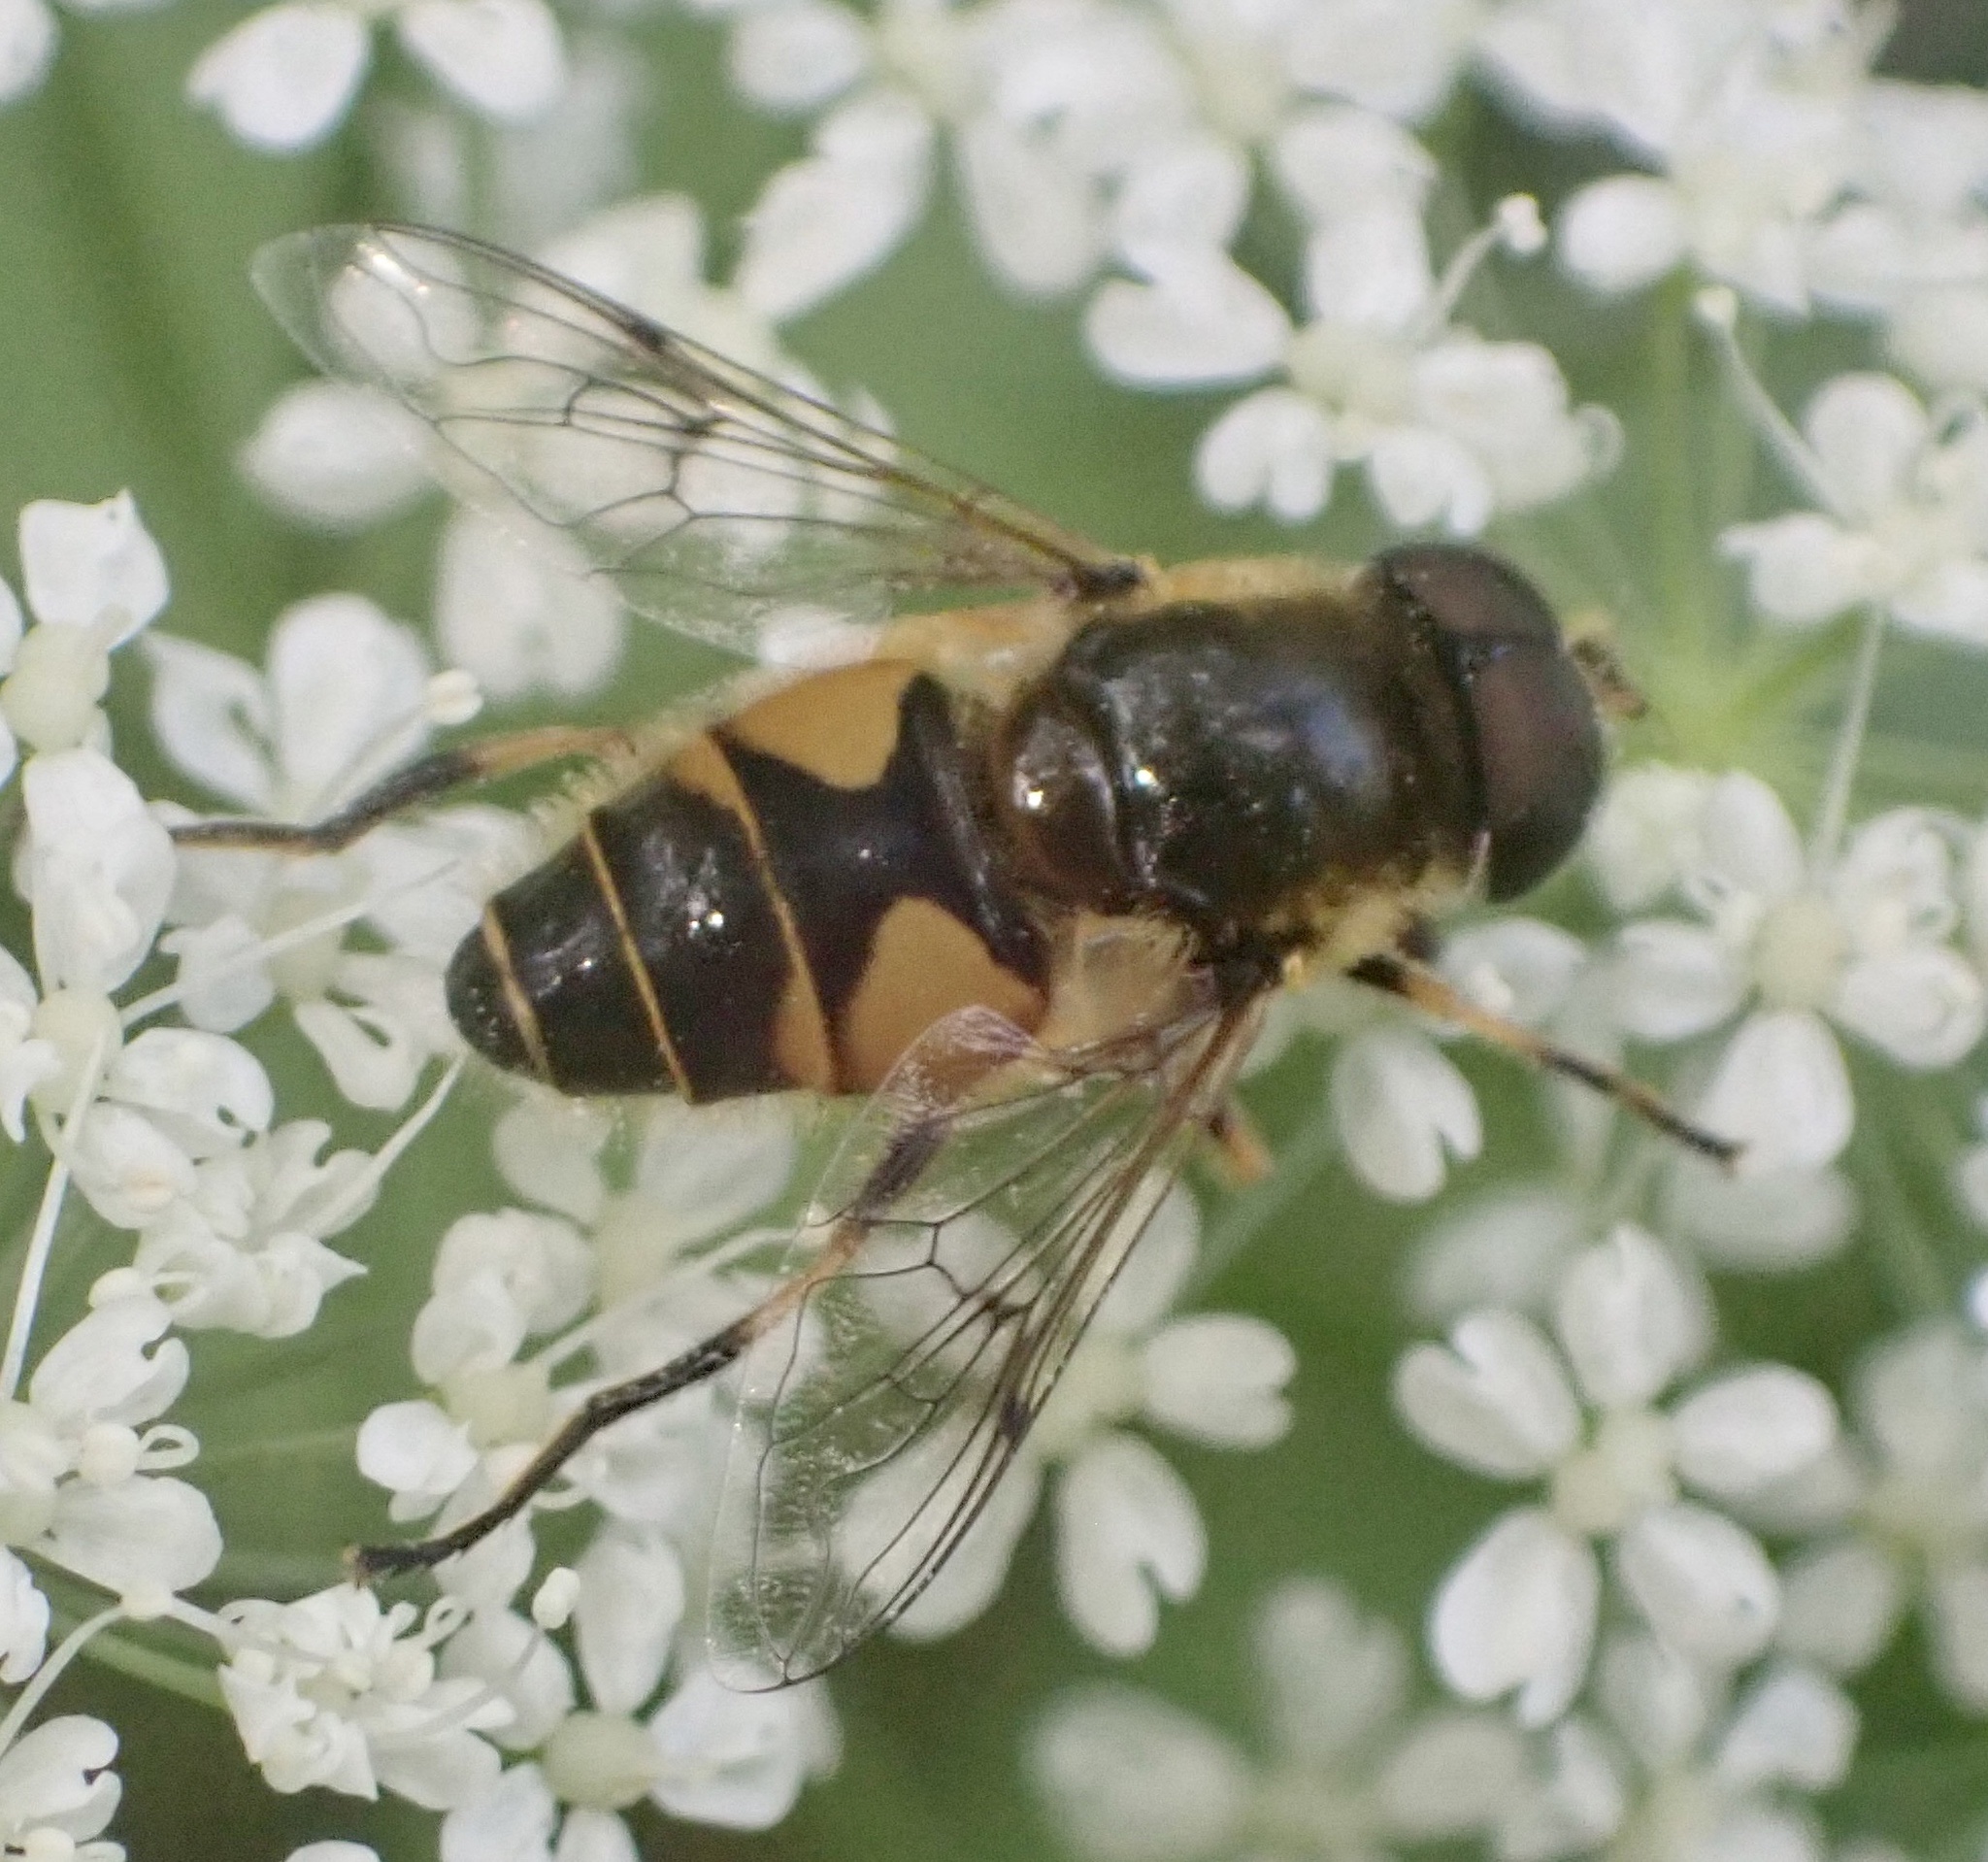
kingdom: Animalia
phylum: Arthropoda
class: Insecta
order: Diptera
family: Syrphidae
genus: Cheilosia
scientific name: Cheilosia morio
